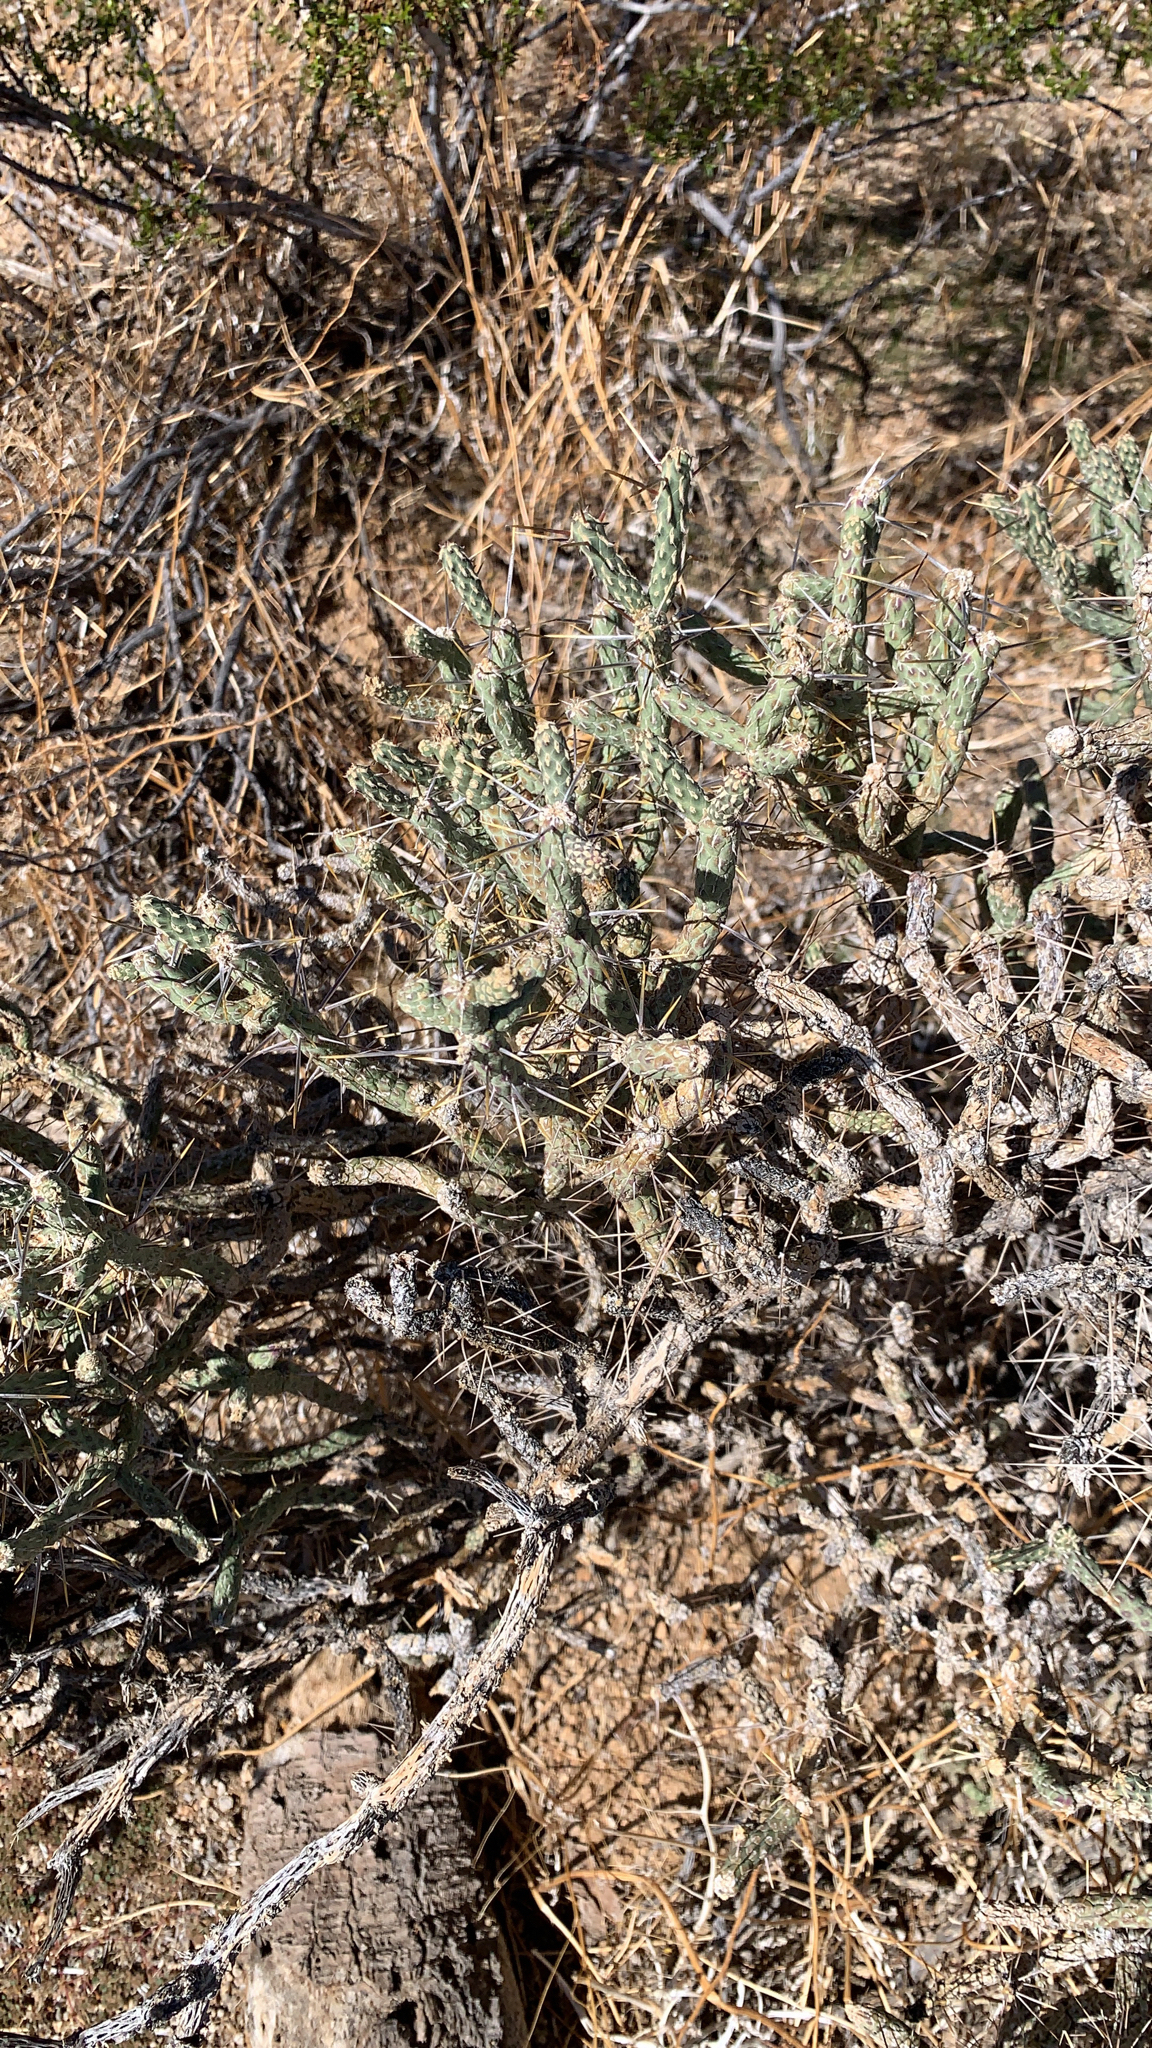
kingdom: Plantae
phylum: Tracheophyta
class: Magnoliopsida
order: Caryophyllales
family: Cactaceae
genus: Cylindropuntia
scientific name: Cylindropuntia ramosissima
